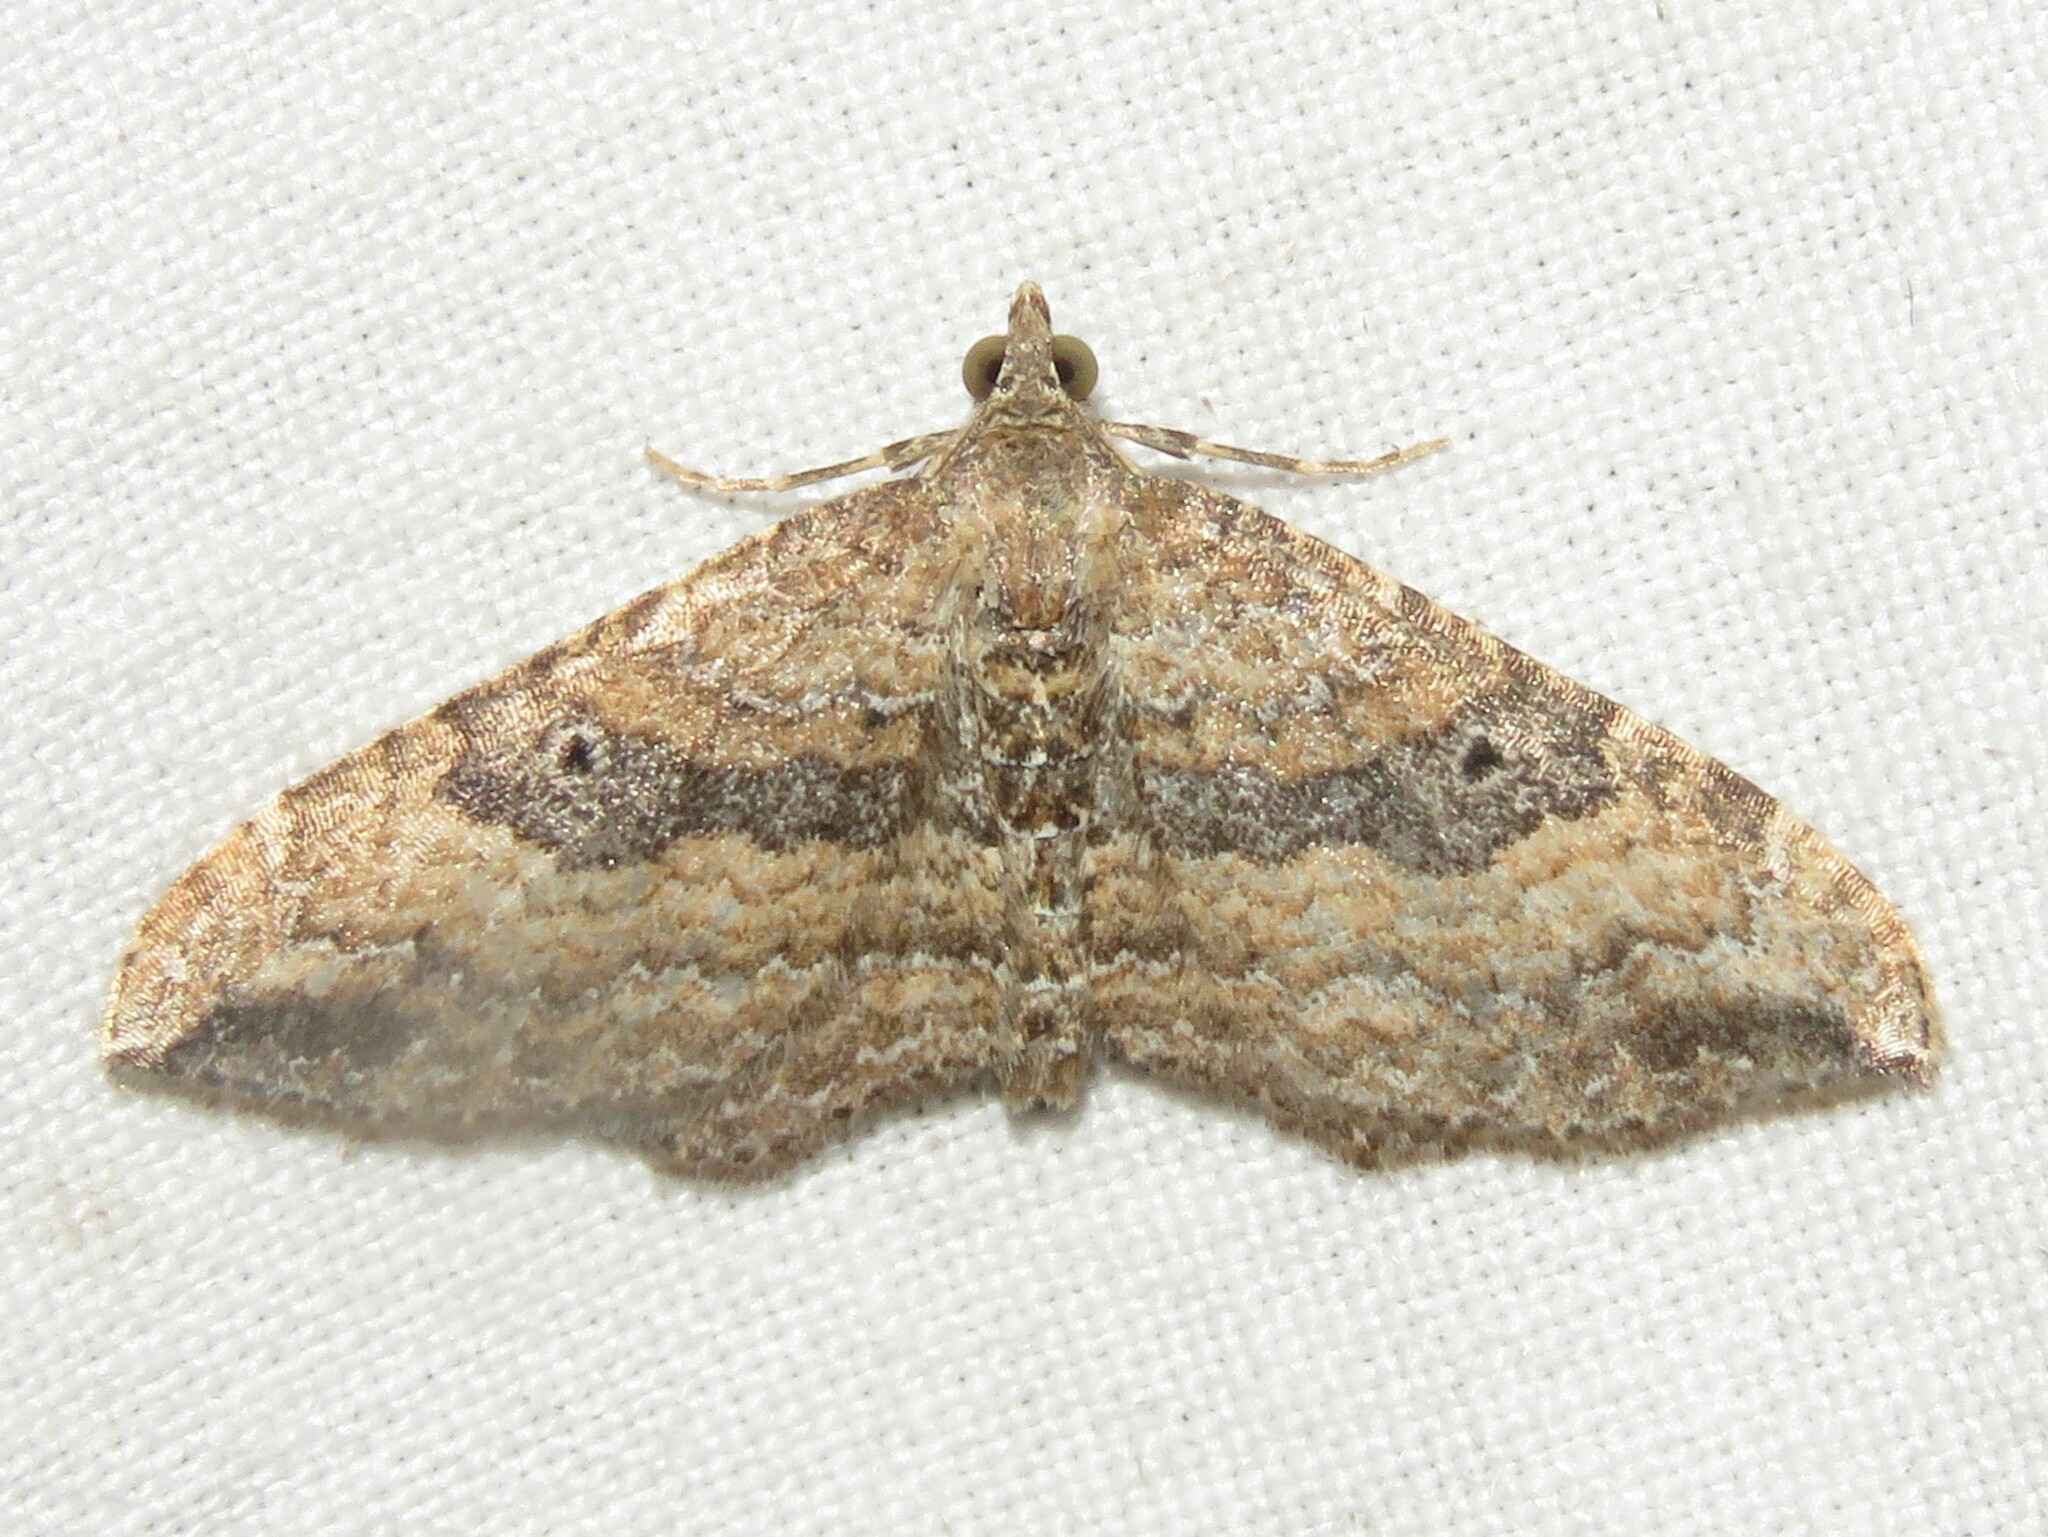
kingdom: Animalia
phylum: Arthropoda
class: Insecta
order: Lepidoptera
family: Geometridae
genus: Orthonama
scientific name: Orthonama obstipata
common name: The gem
